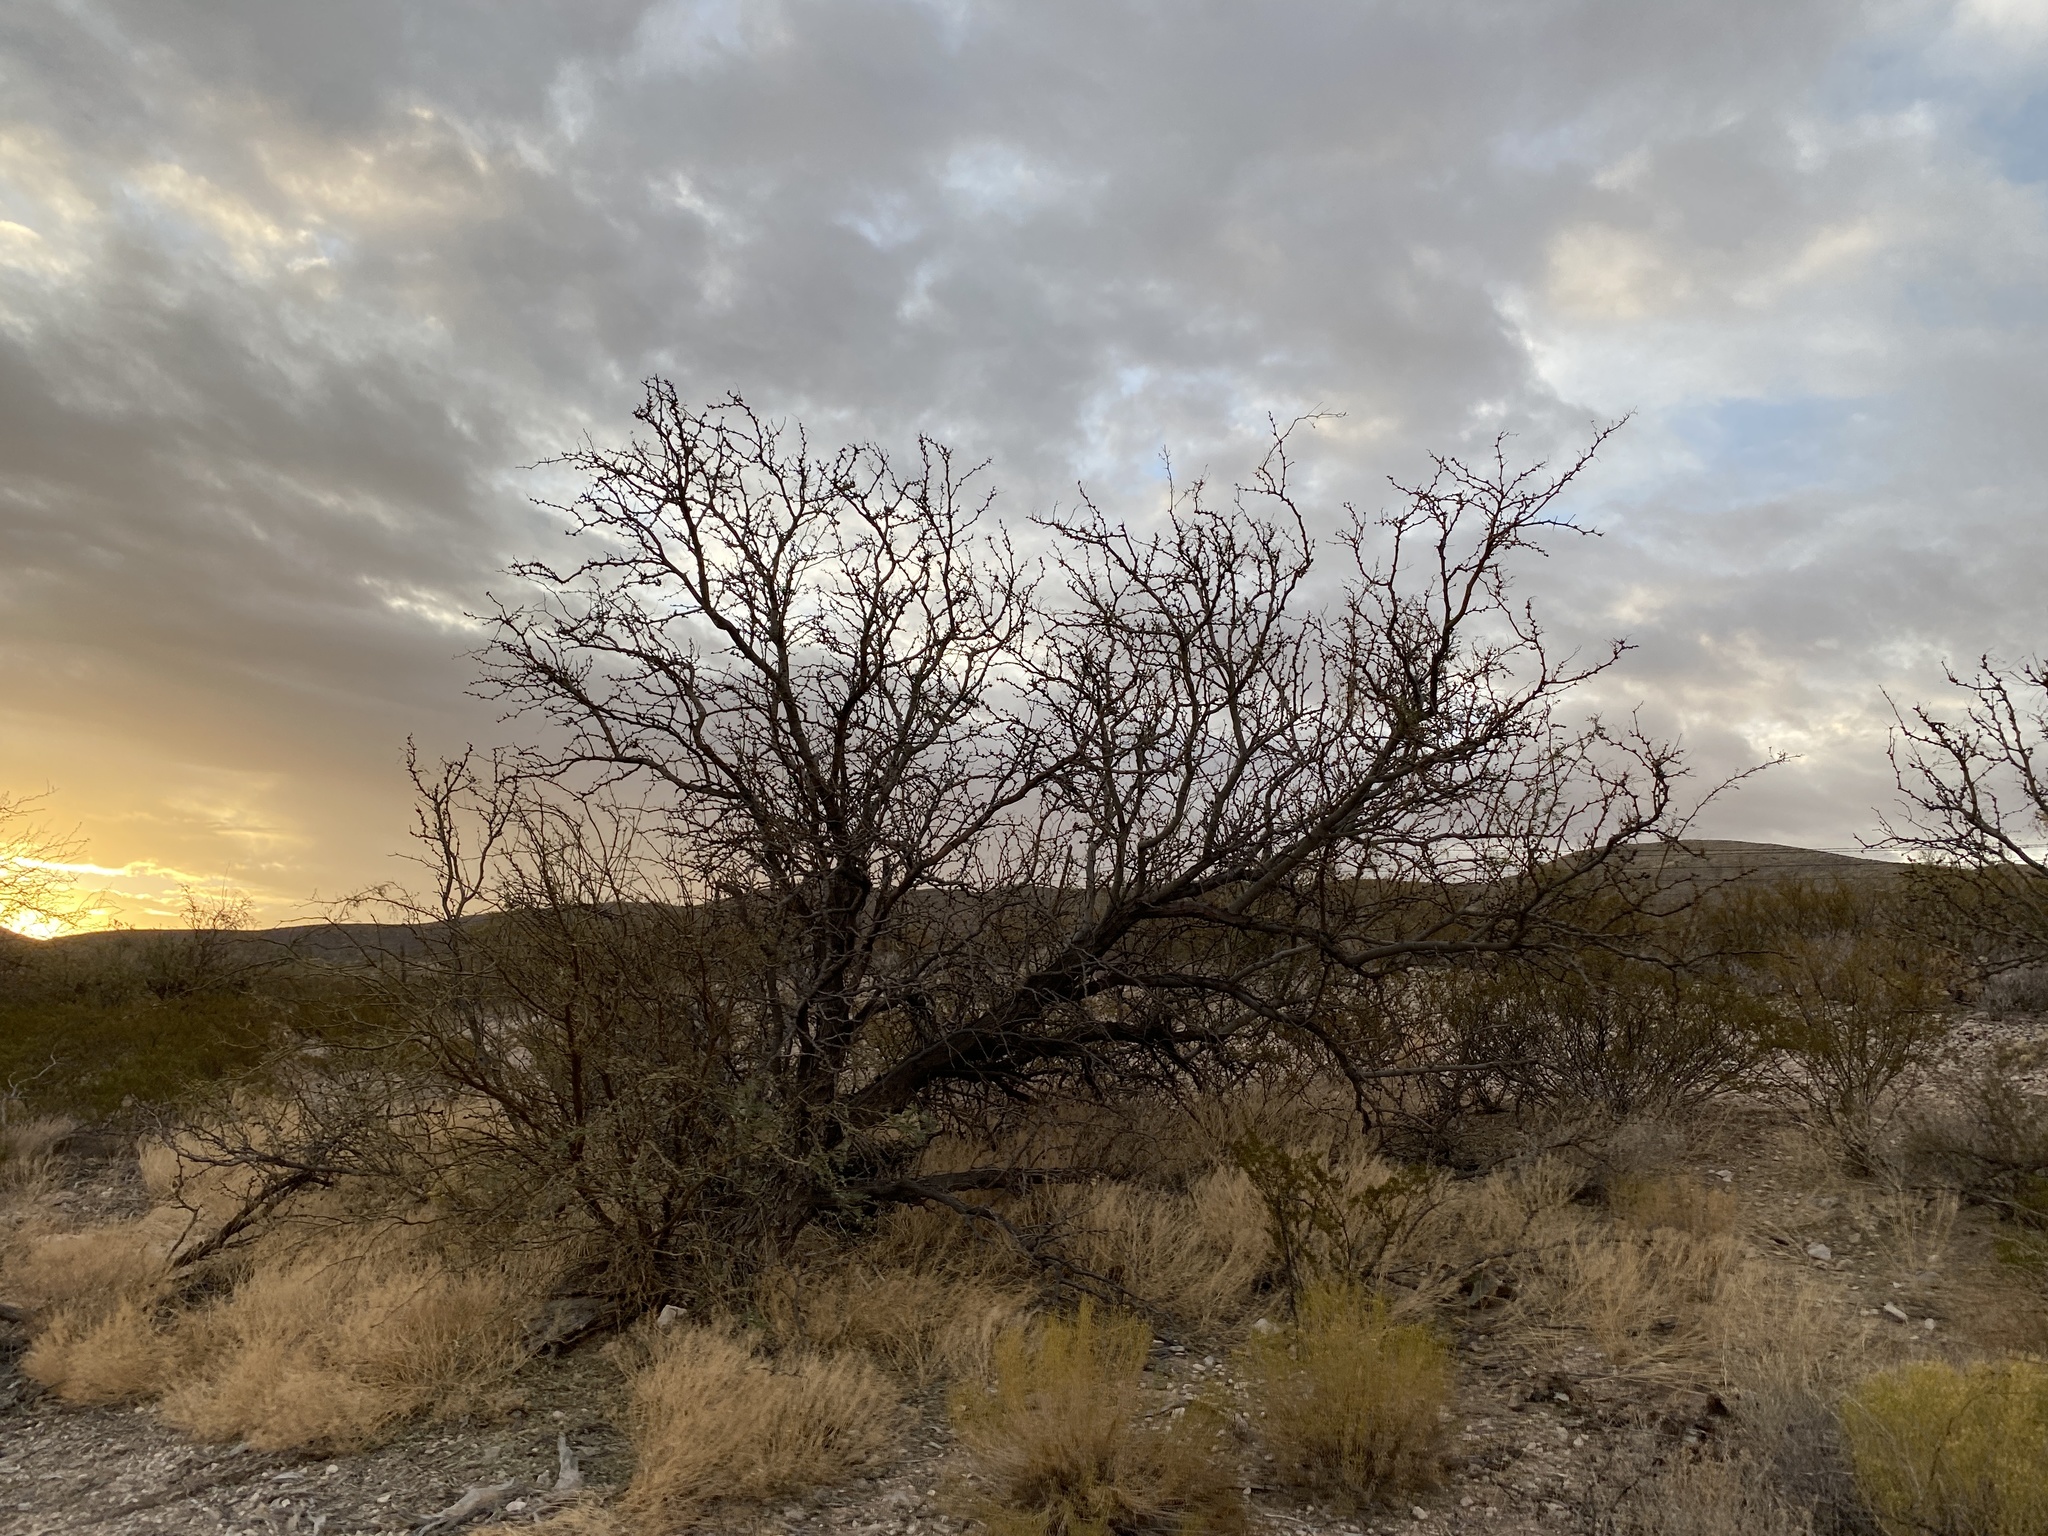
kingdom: Plantae
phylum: Tracheophyta
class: Magnoliopsida
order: Fabales
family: Fabaceae
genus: Prosopis
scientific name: Prosopis glandulosa
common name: Honey mesquite
